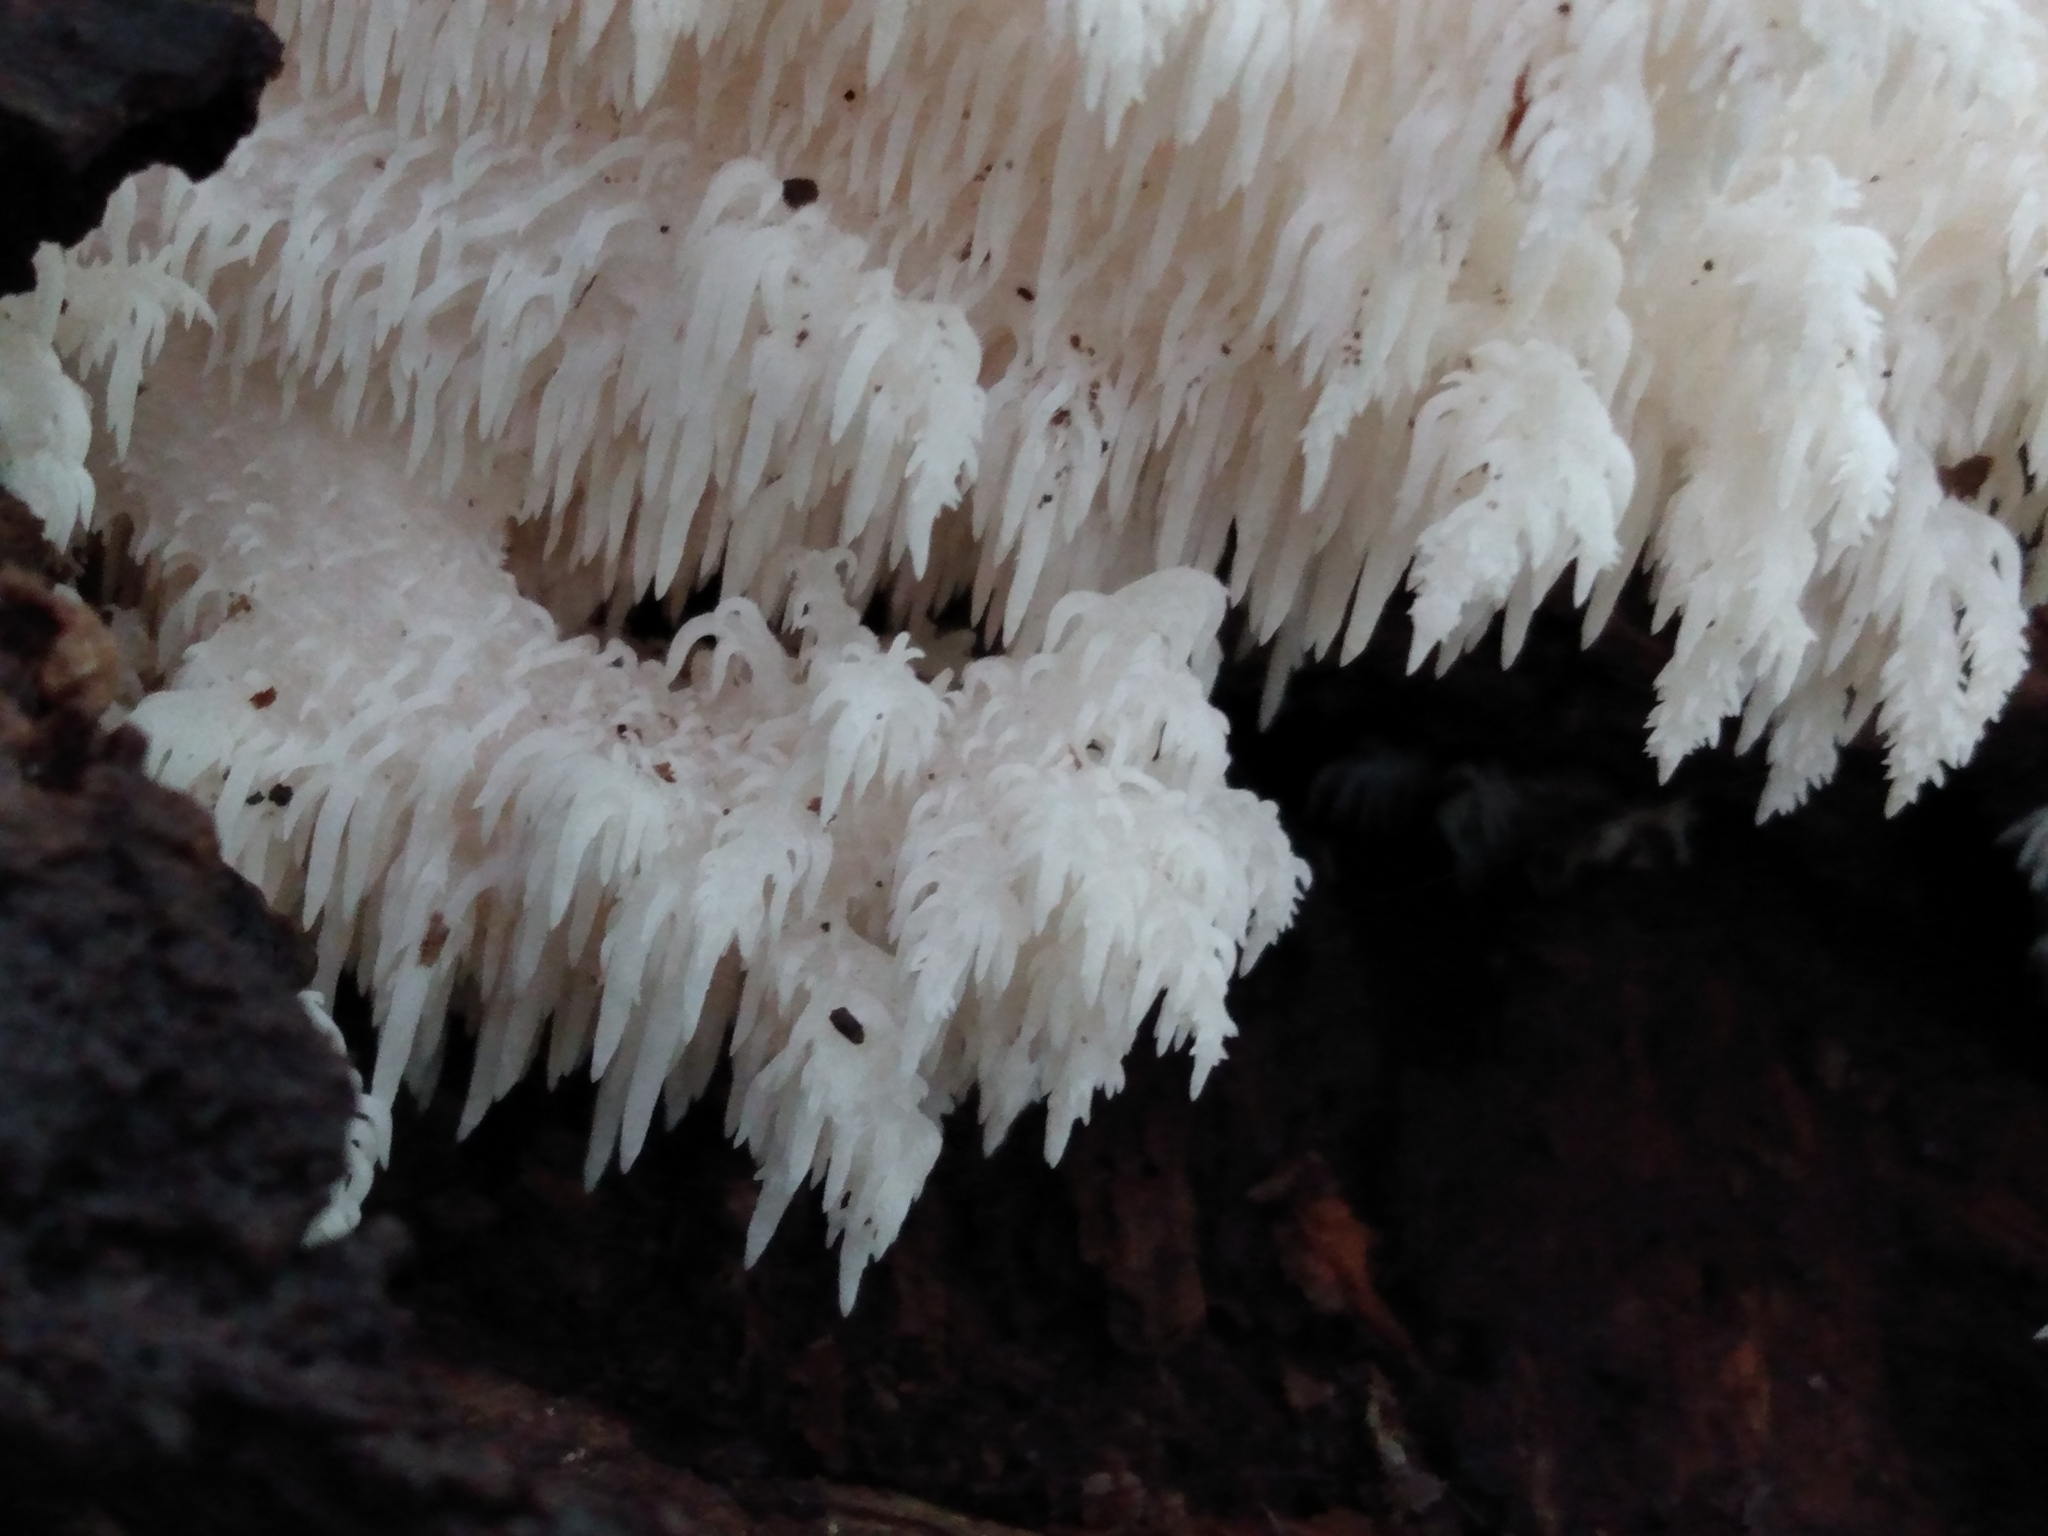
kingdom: Fungi
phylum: Basidiomycota
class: Agaricomycetes
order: Russulales
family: Hericiaceae
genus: Hericium
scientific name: Hericium coralloides
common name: Coral tooth
